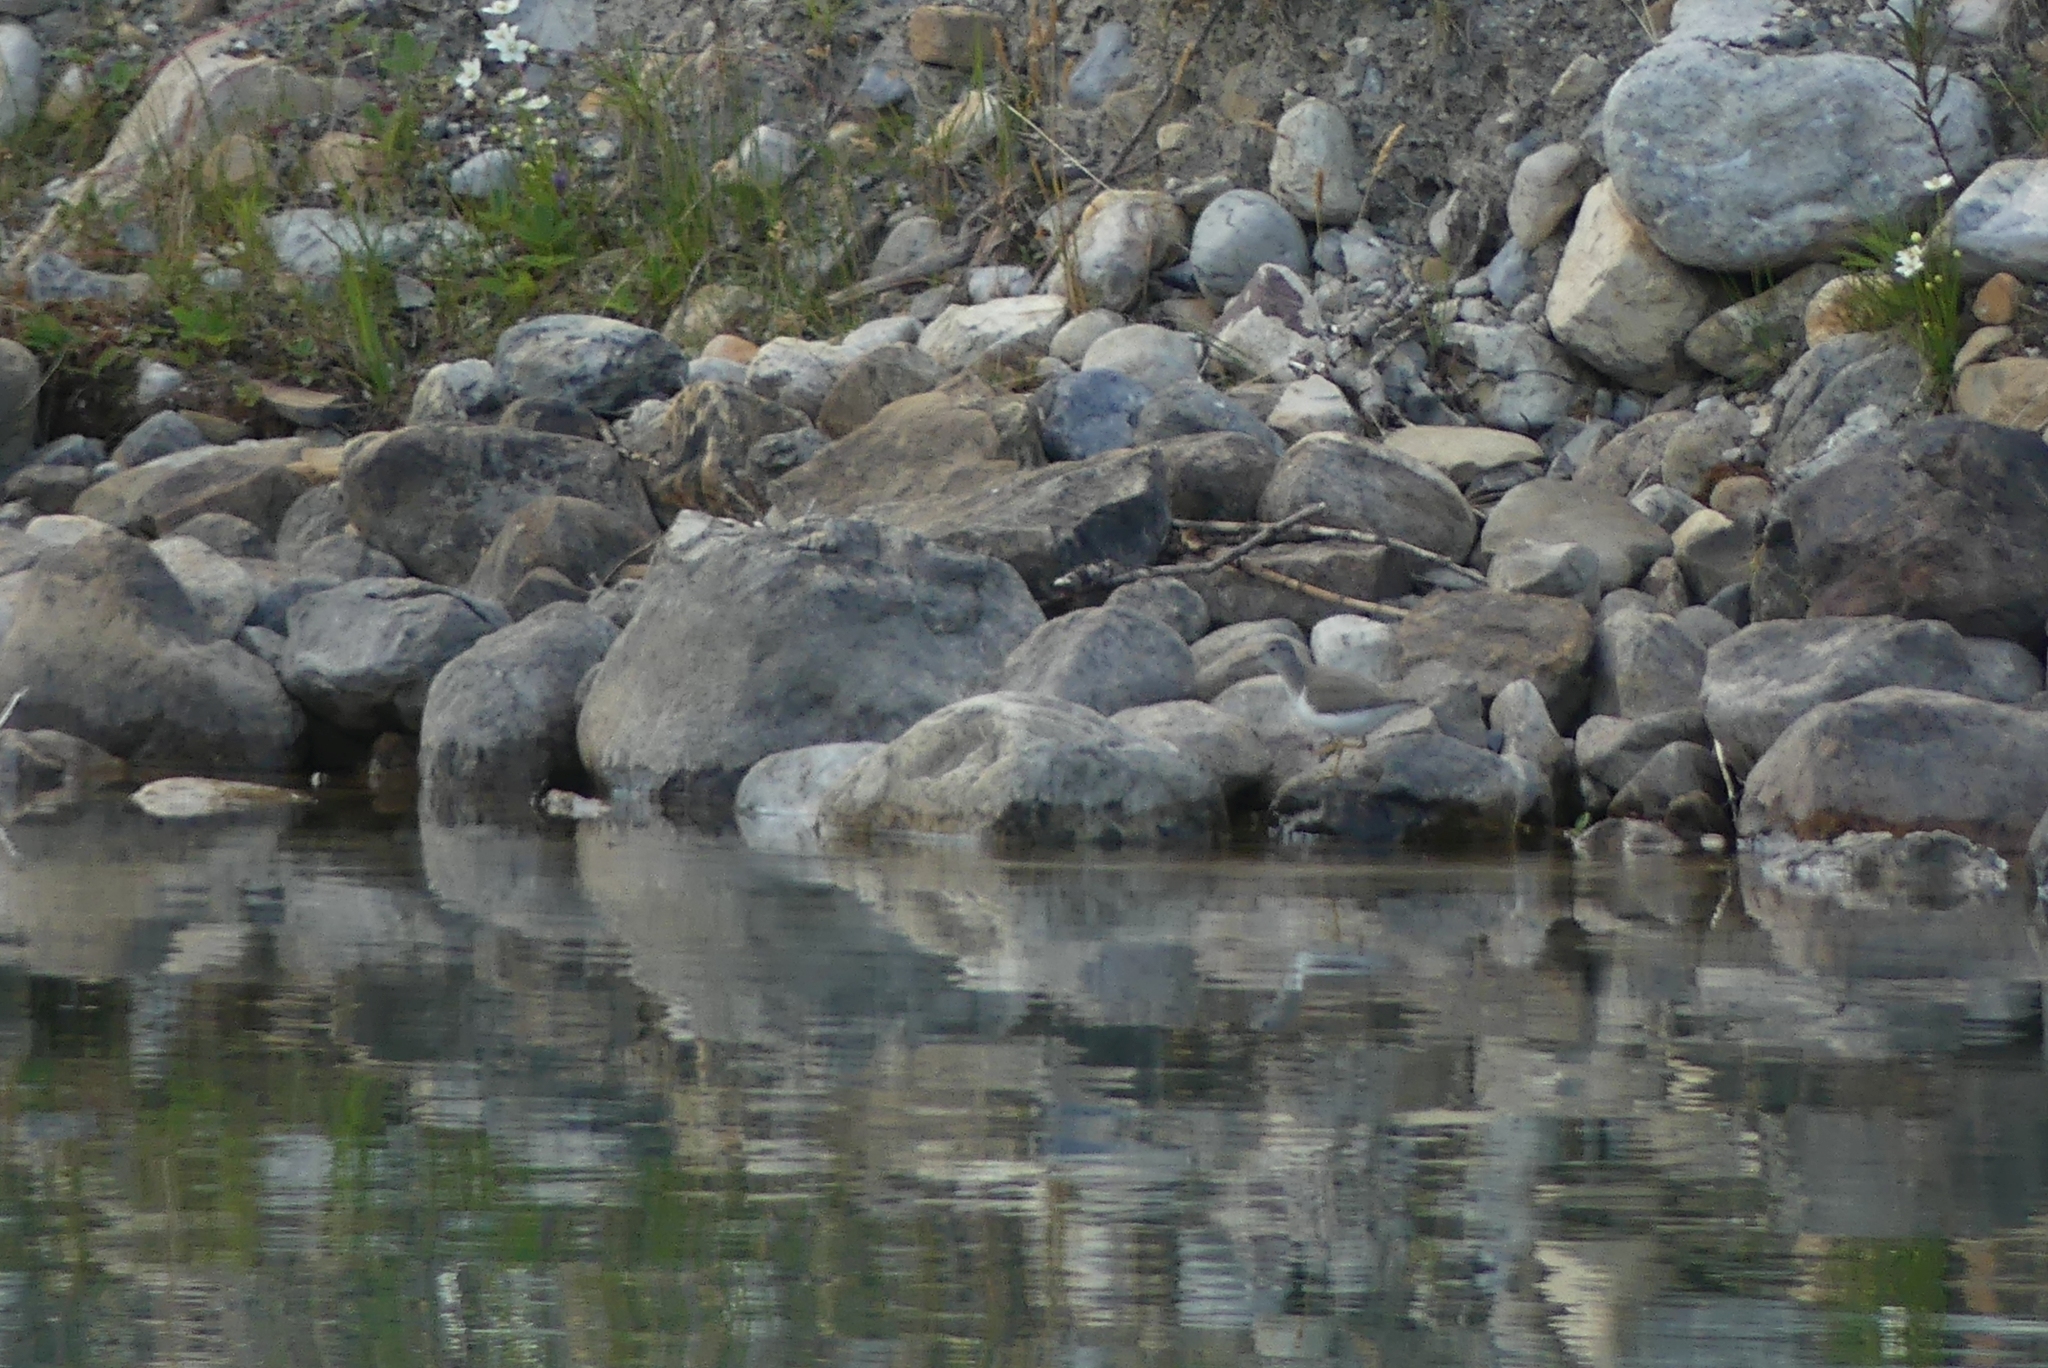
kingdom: Animalia
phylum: Chordata
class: Aves
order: Charadriiformes
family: Scolopacidae
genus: Actitis
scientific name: Actitis macularius
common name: Spotted sandpiper
